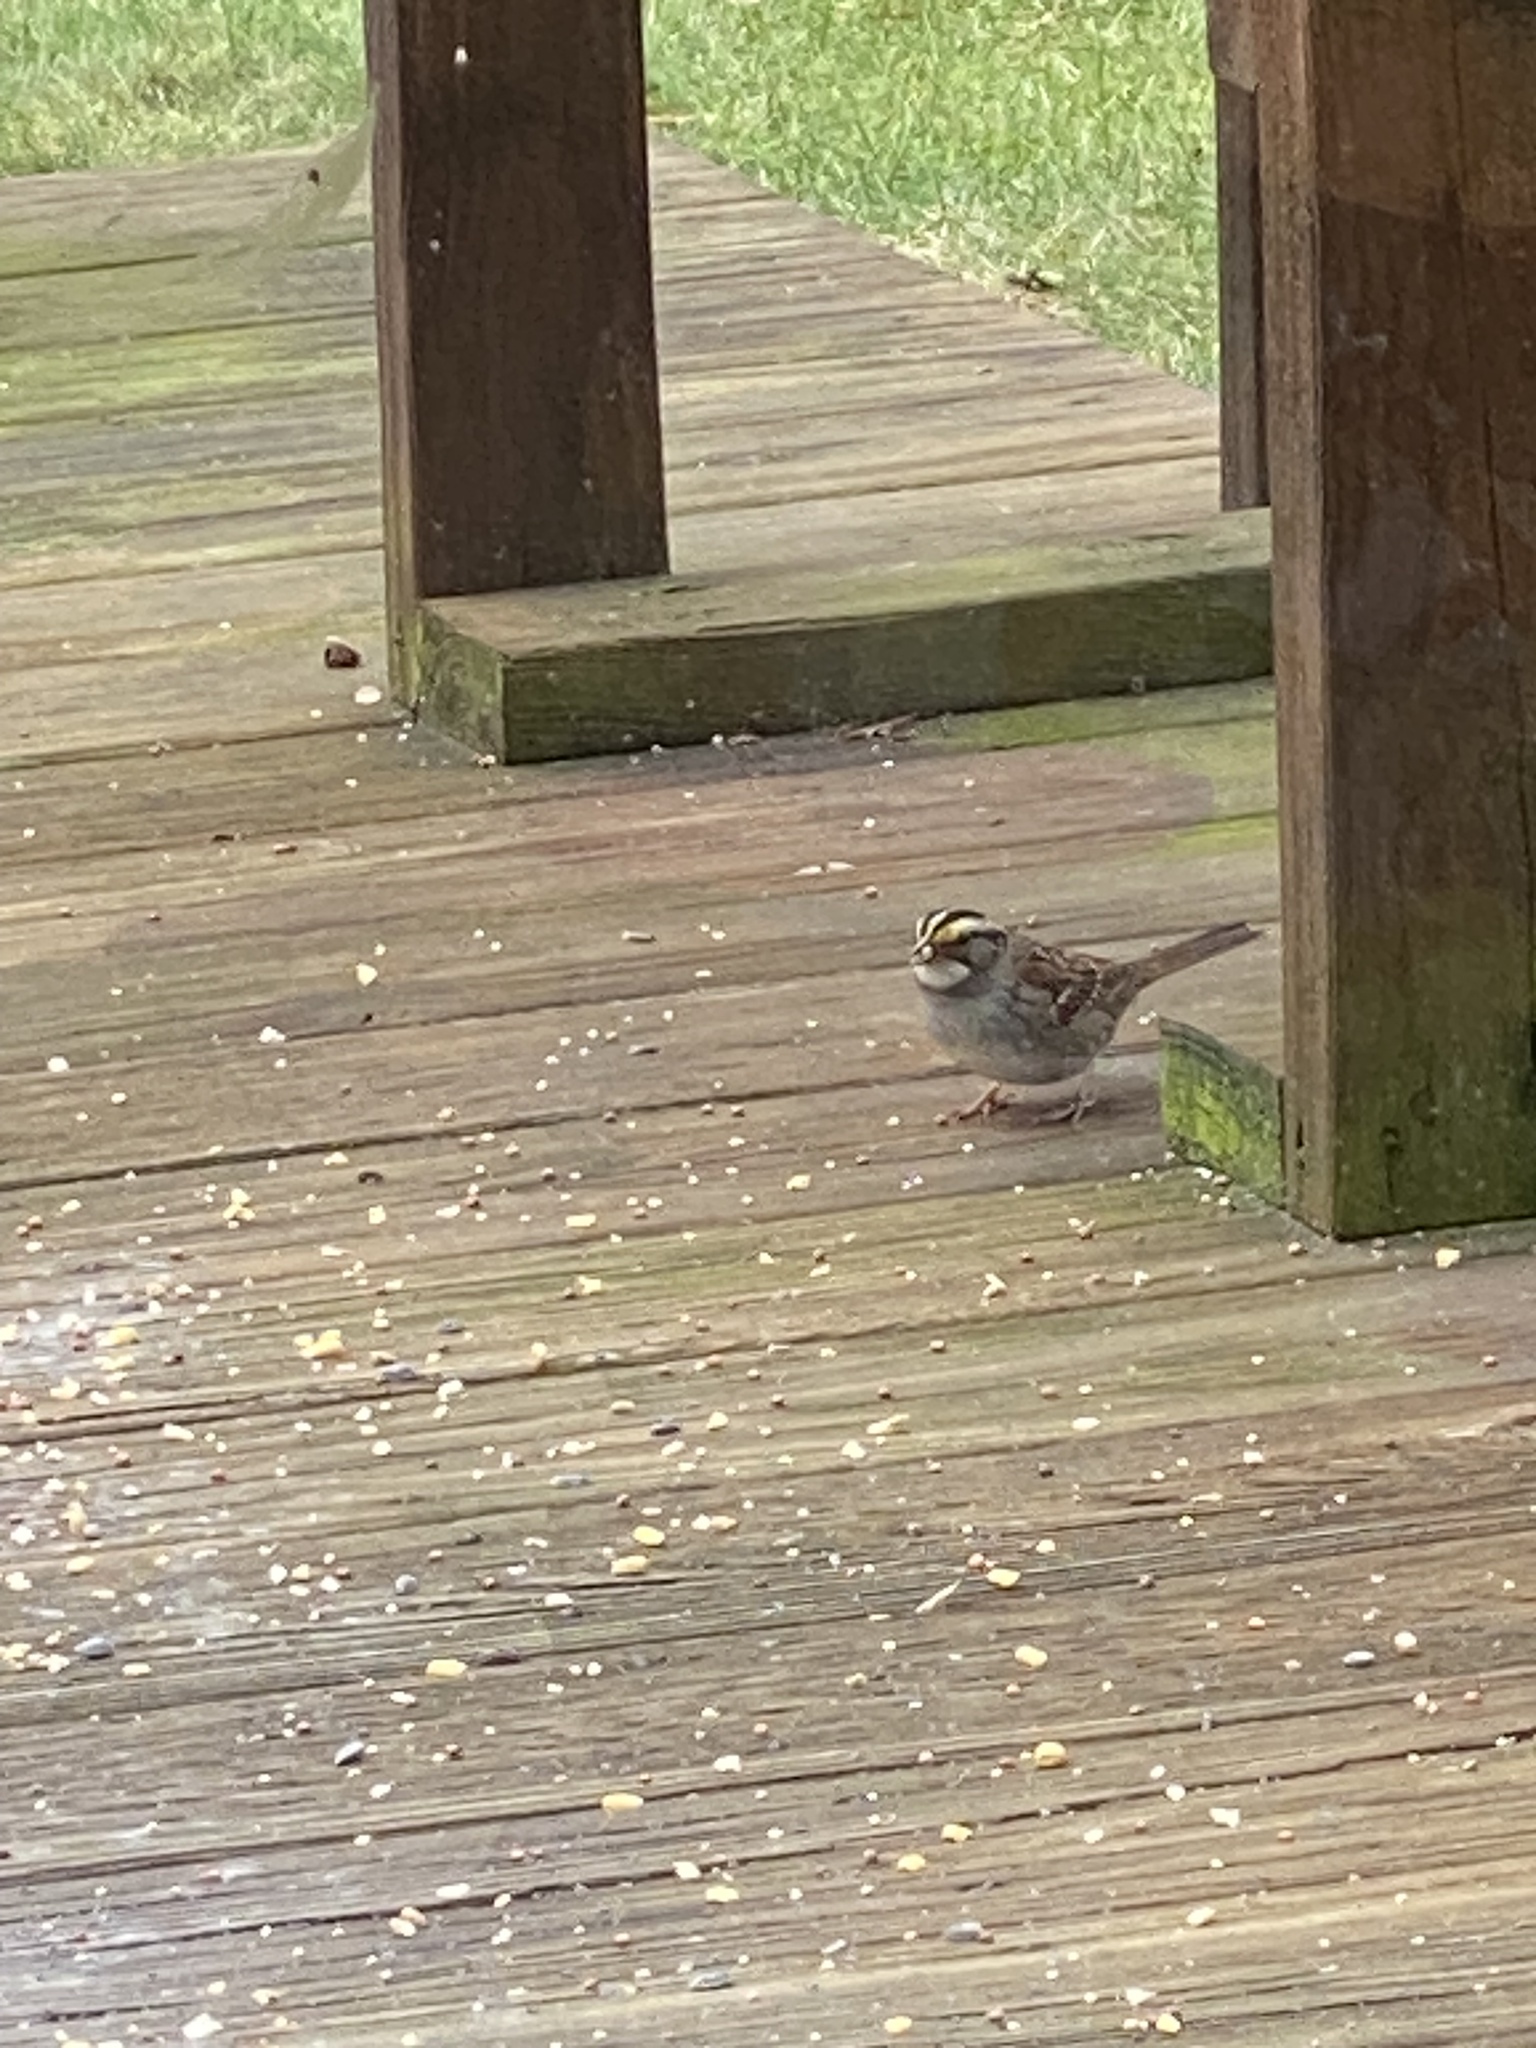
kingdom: Animalia
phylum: Chordata
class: Aves
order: Passeriformes
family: Passerellidae
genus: Zonotrichia
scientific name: Zonotrichia albicollis
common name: White-throated sparrow
